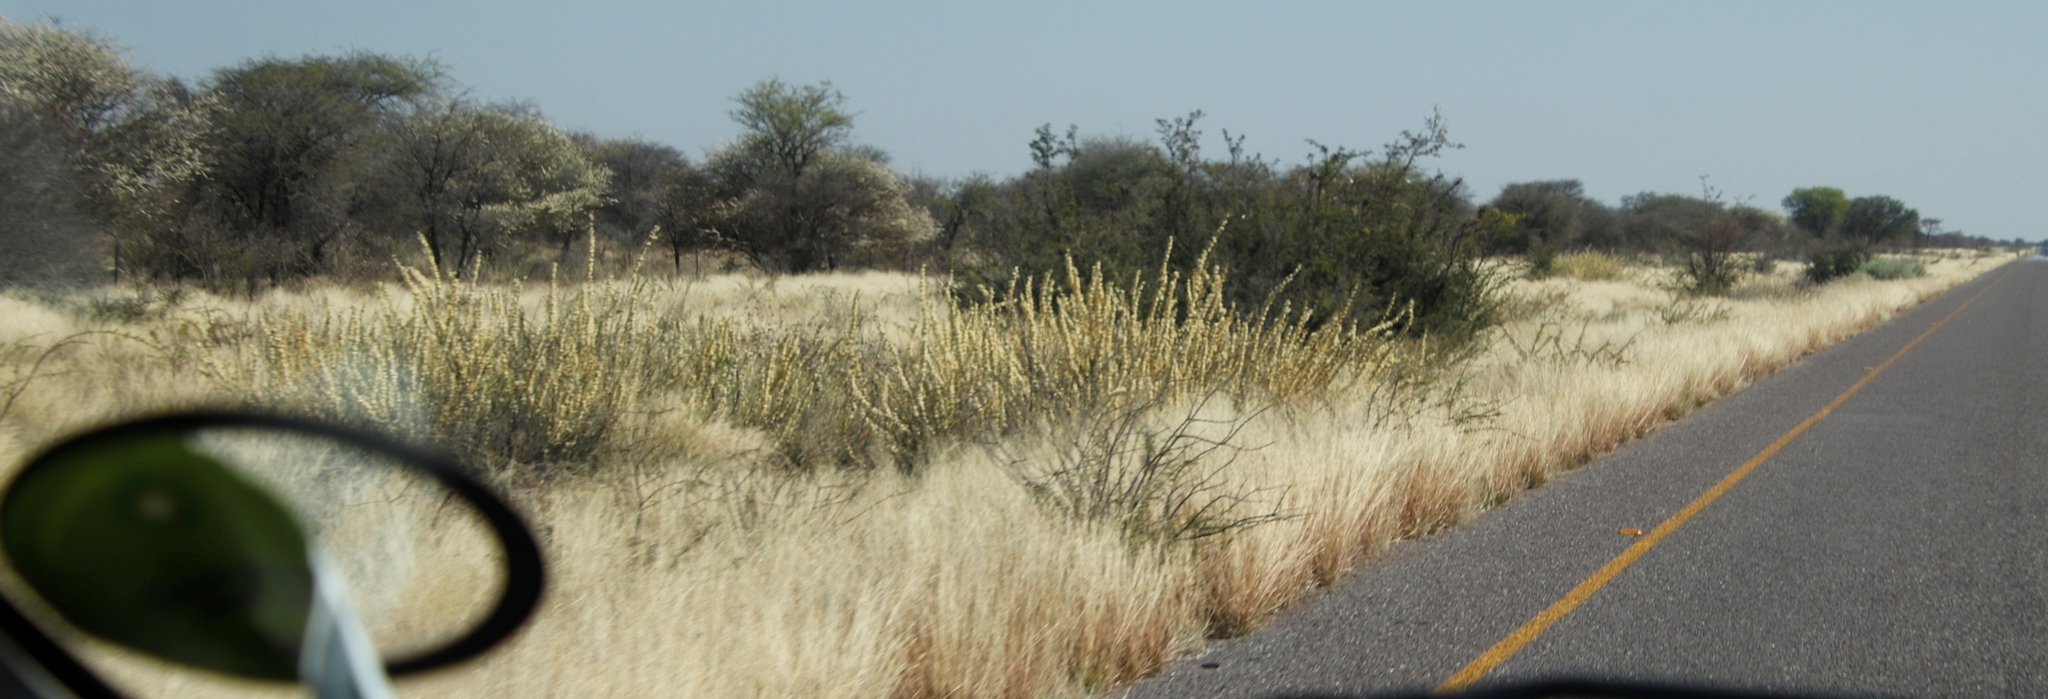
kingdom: Plantae
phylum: Tracheophyta
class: Magnoliopsida
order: Fabales
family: Fabaceae
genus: Vachellia
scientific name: Vachellia hebeclada
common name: Candle thorn
